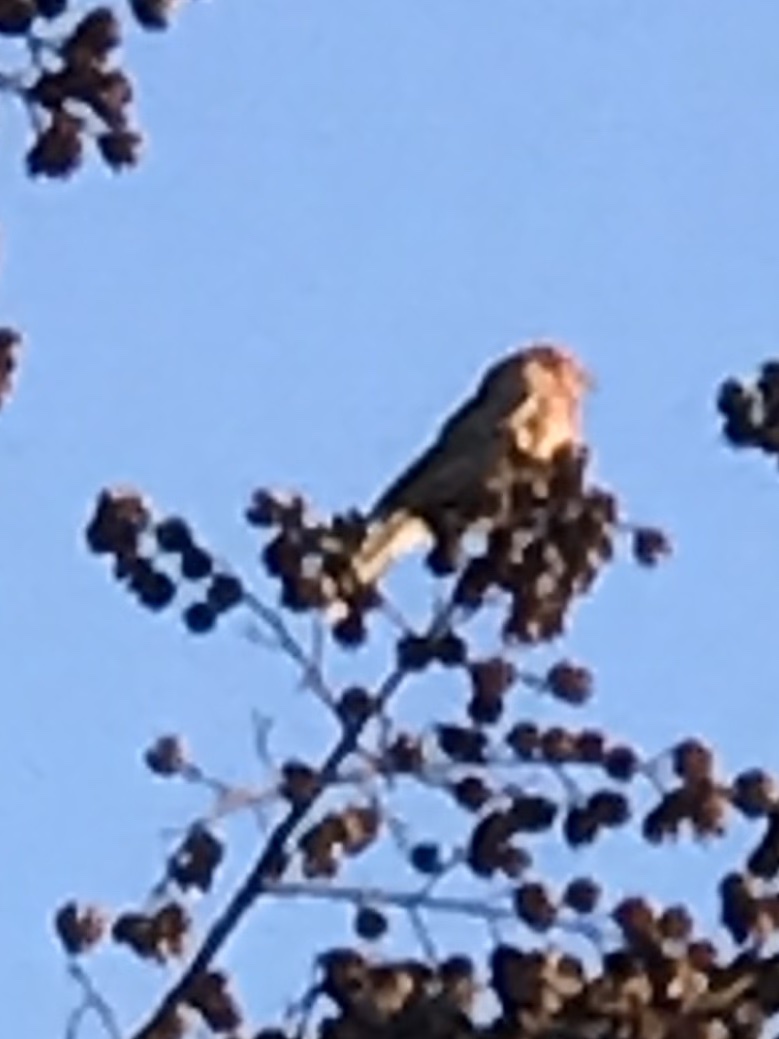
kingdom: Animalia
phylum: Chordata
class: Aves
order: Passeriformes
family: Fringillidae
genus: Haemorhous
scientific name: Haemorhous mexicanus
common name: House finch
